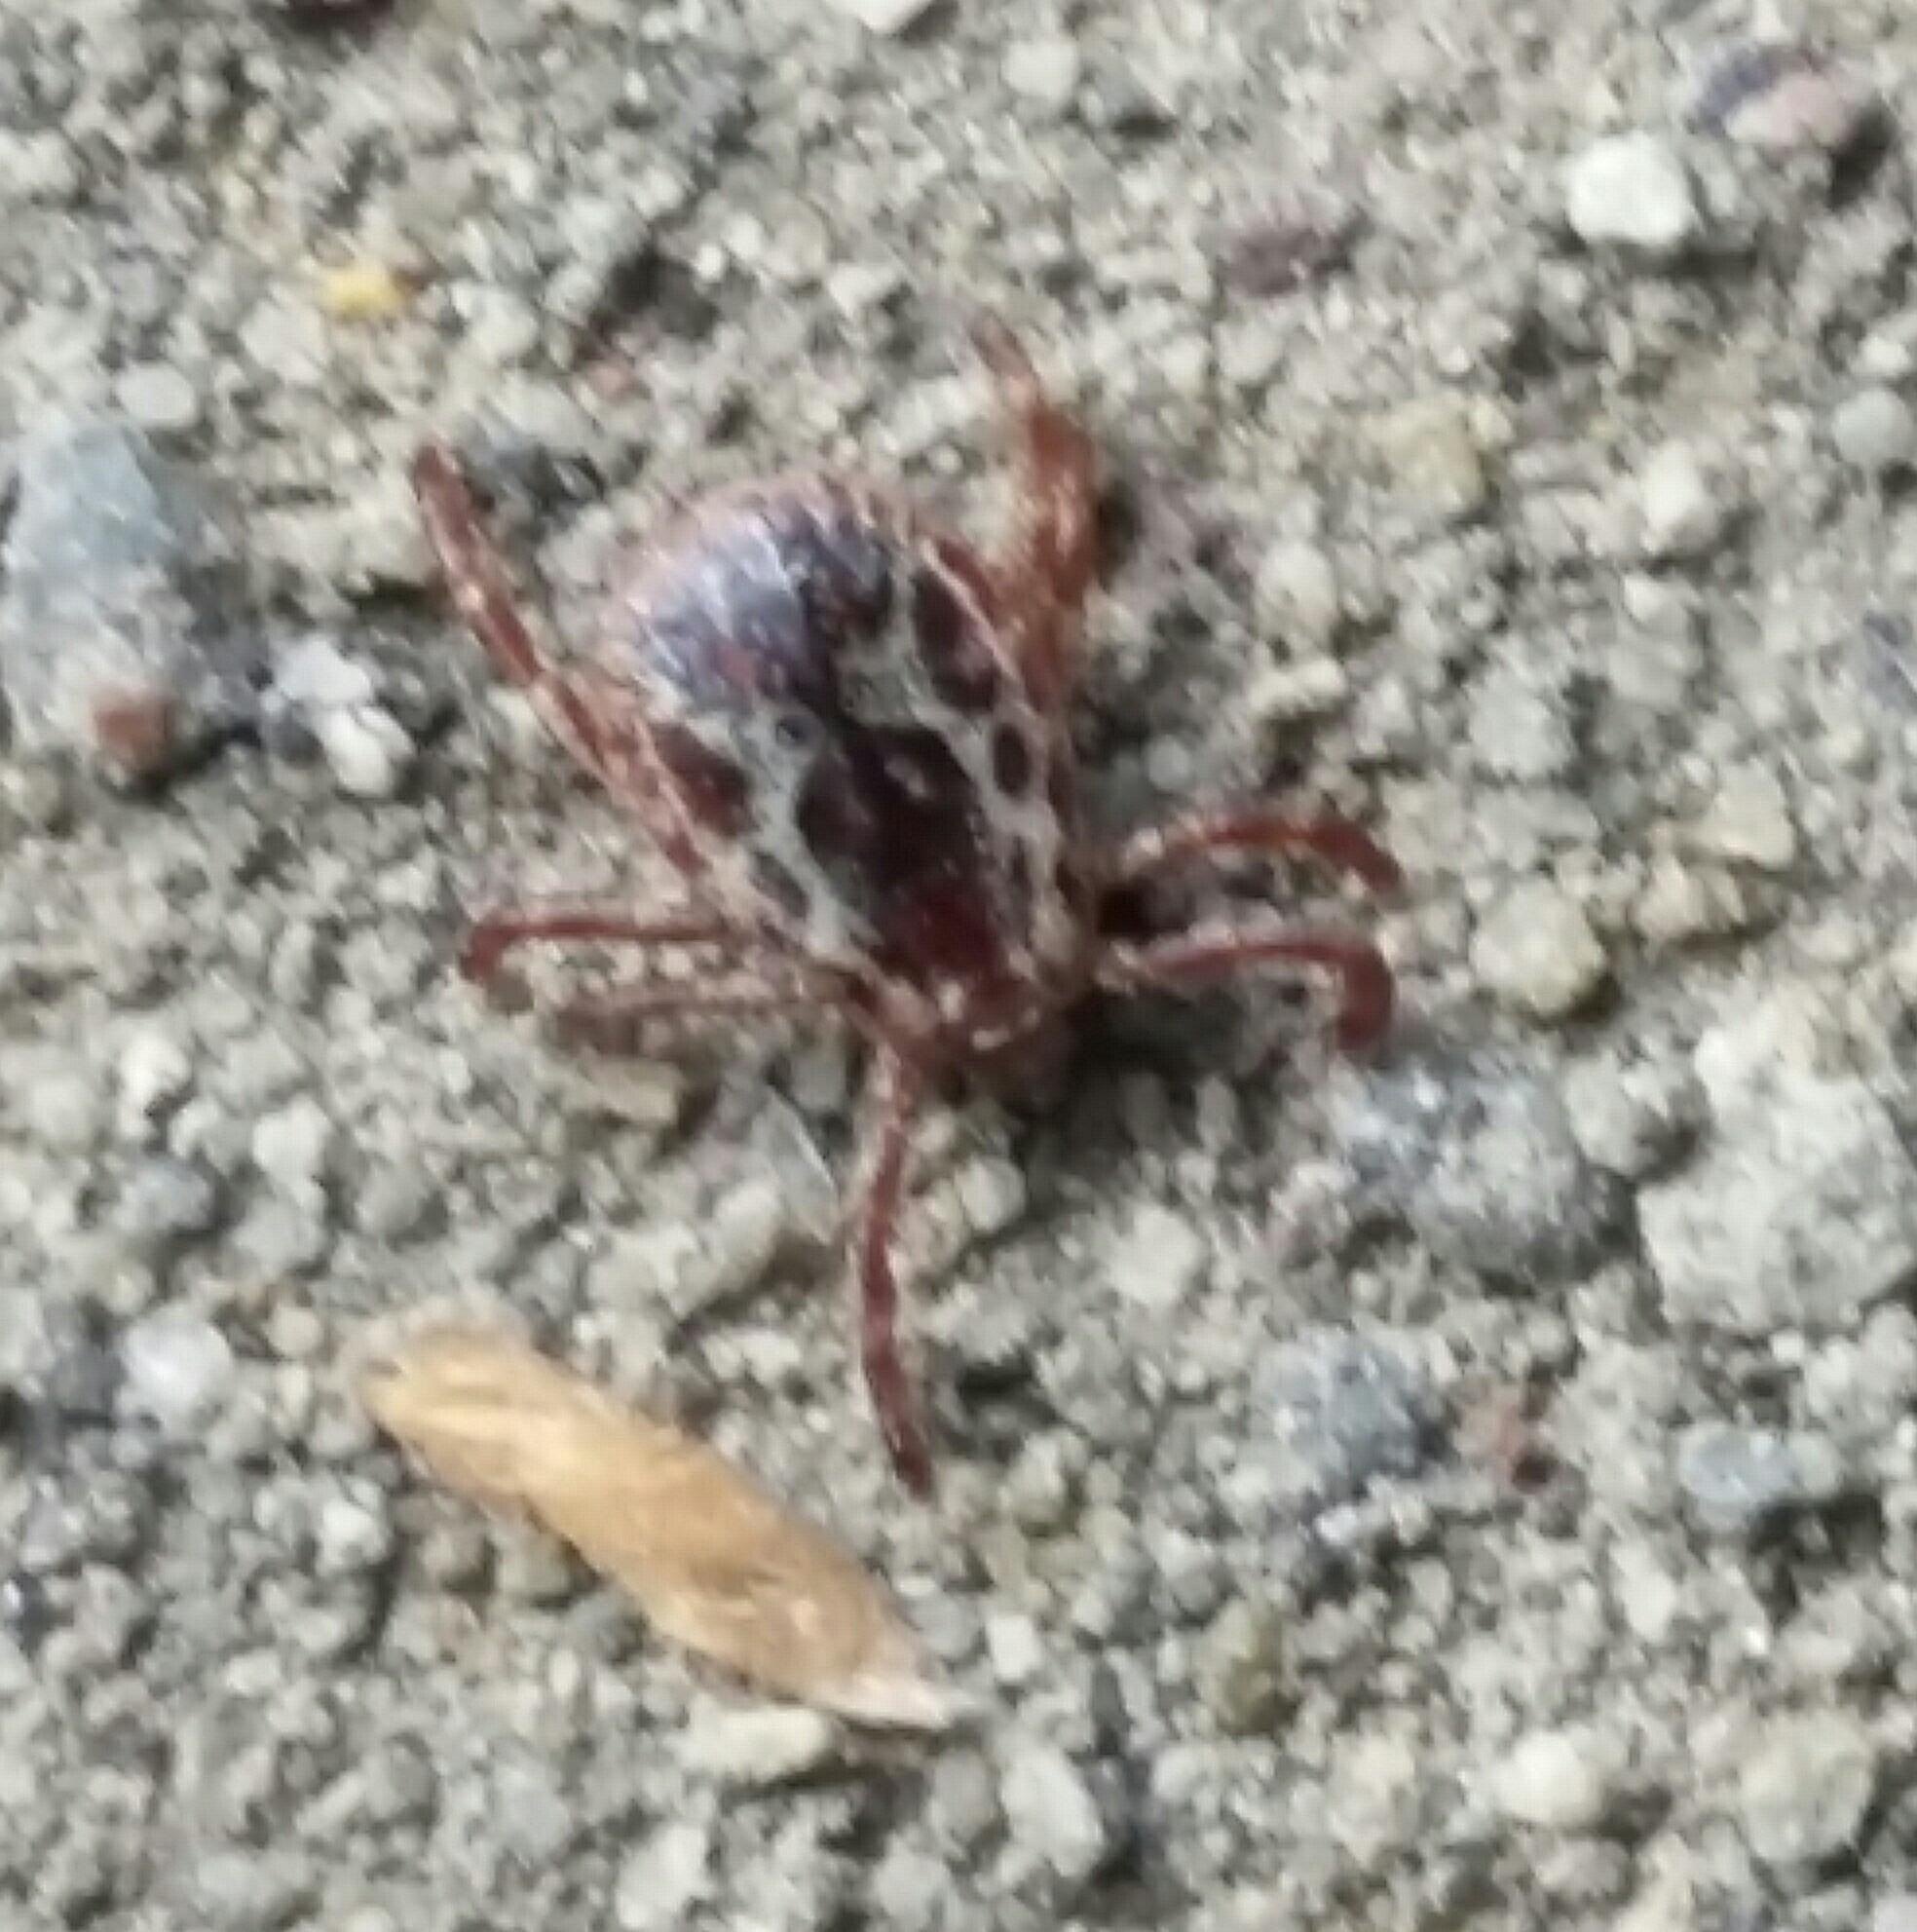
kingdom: Animalia
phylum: Arthropoda
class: Arachnida
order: Ixodida
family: Ixodidae
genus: Dermacentor
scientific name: Dermacentor variabilis
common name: American dog tick
